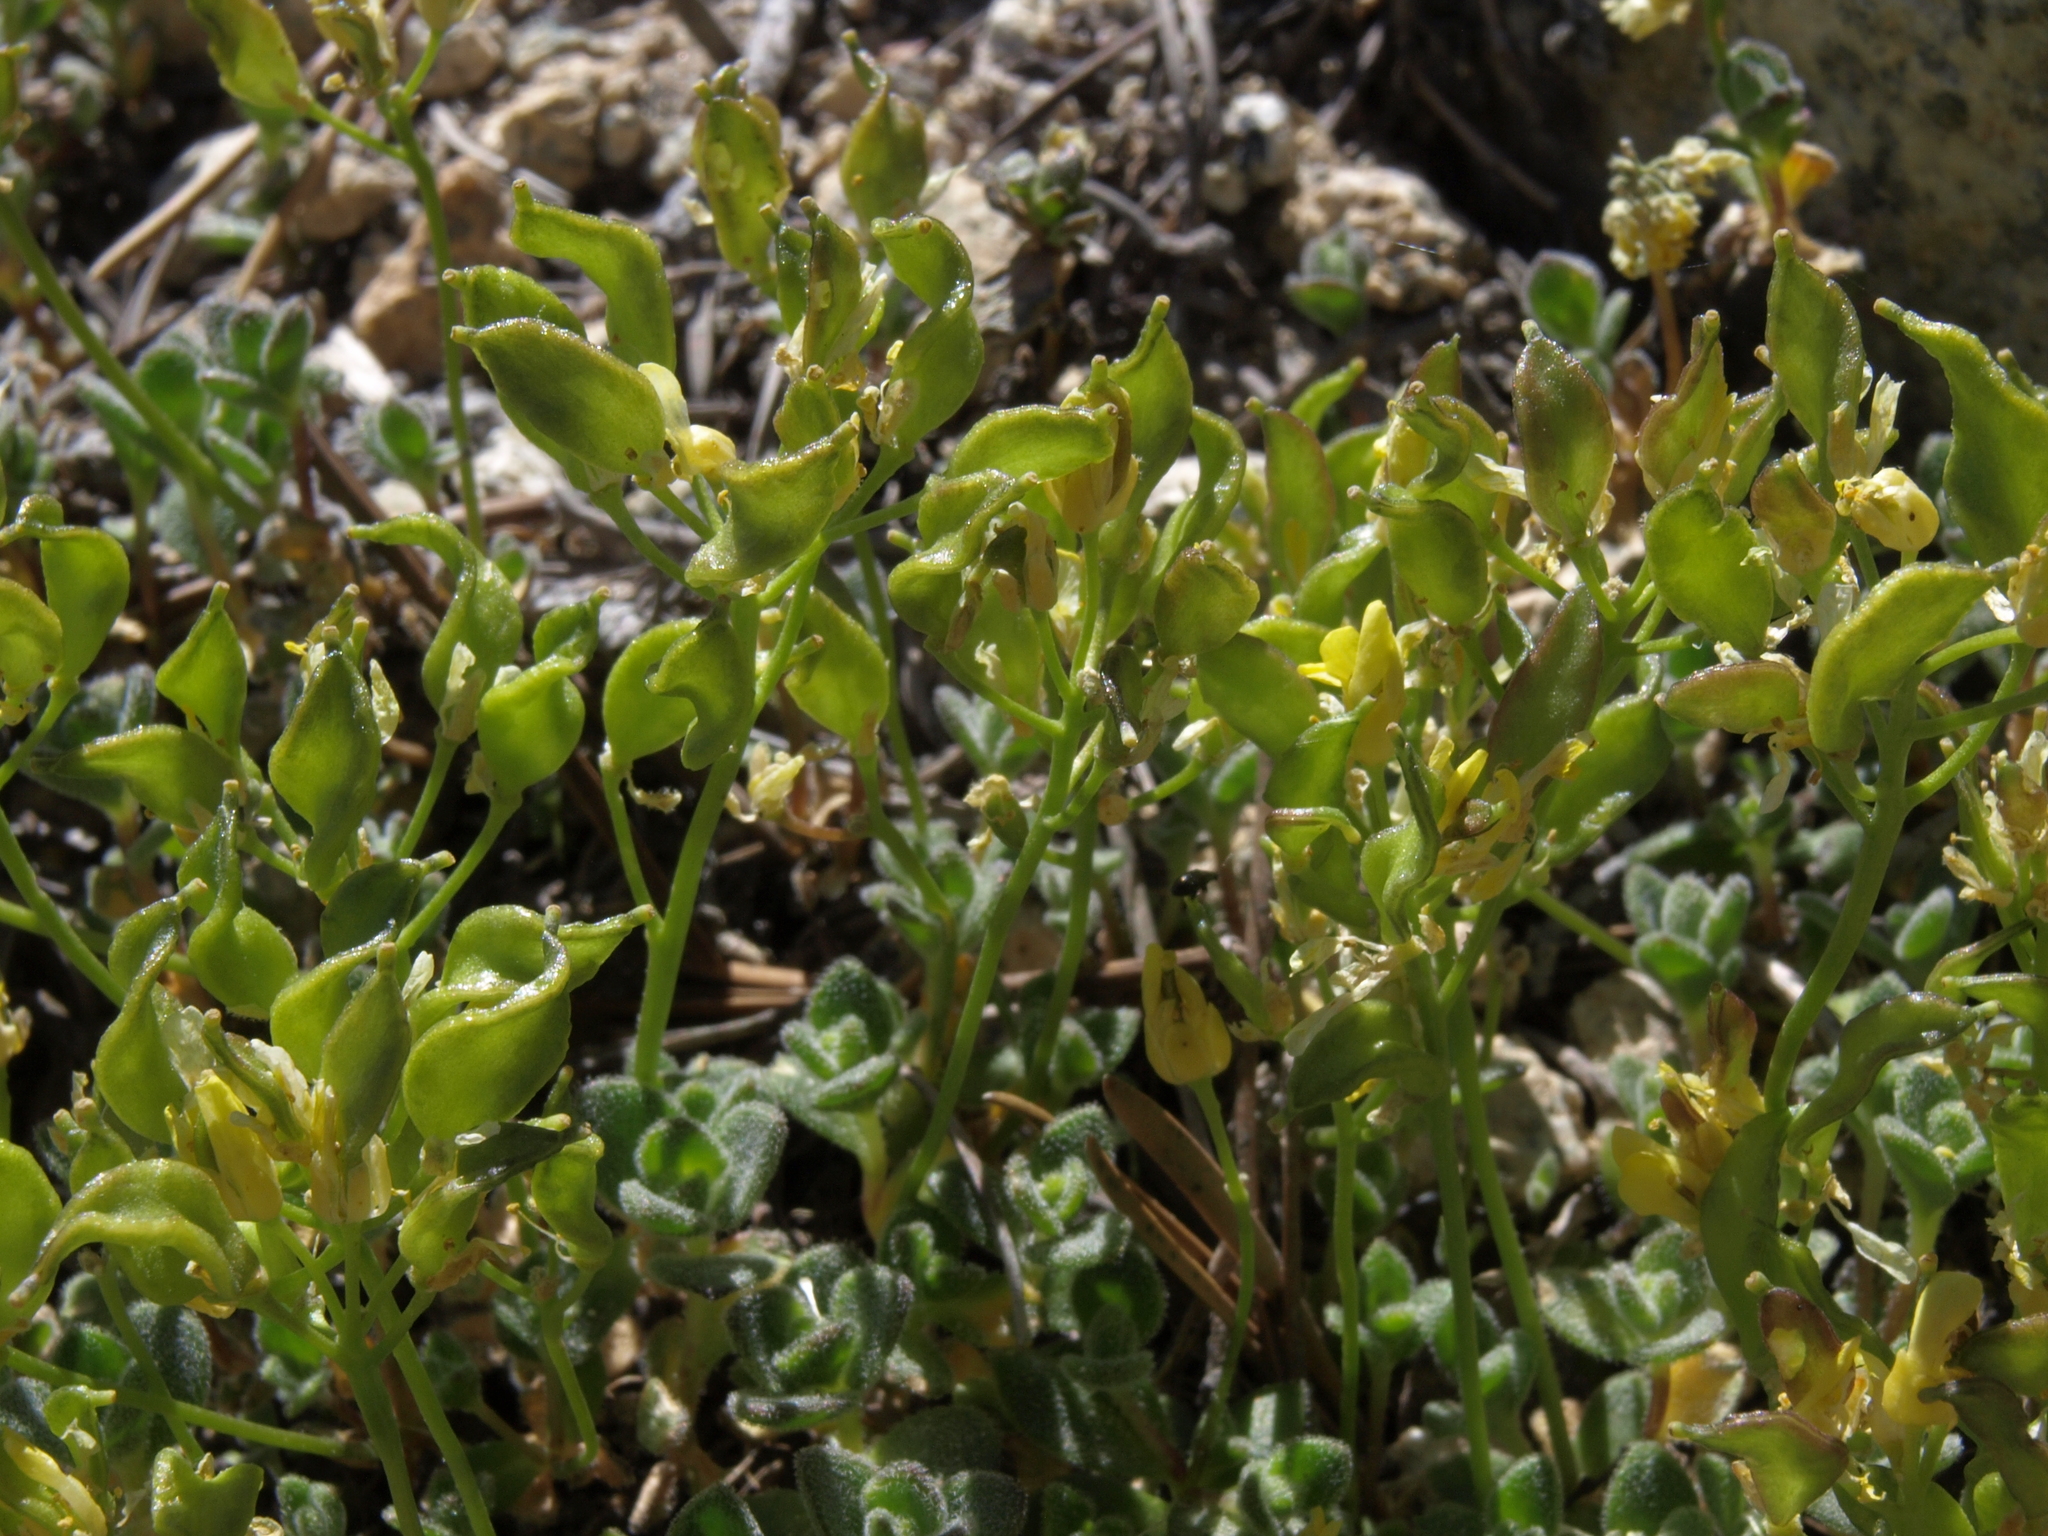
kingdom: Plantae
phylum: Tracheophyta
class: Magnoliopsida
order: Brassicales
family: Brassicaceae
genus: Draba
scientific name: Draba asterophora
